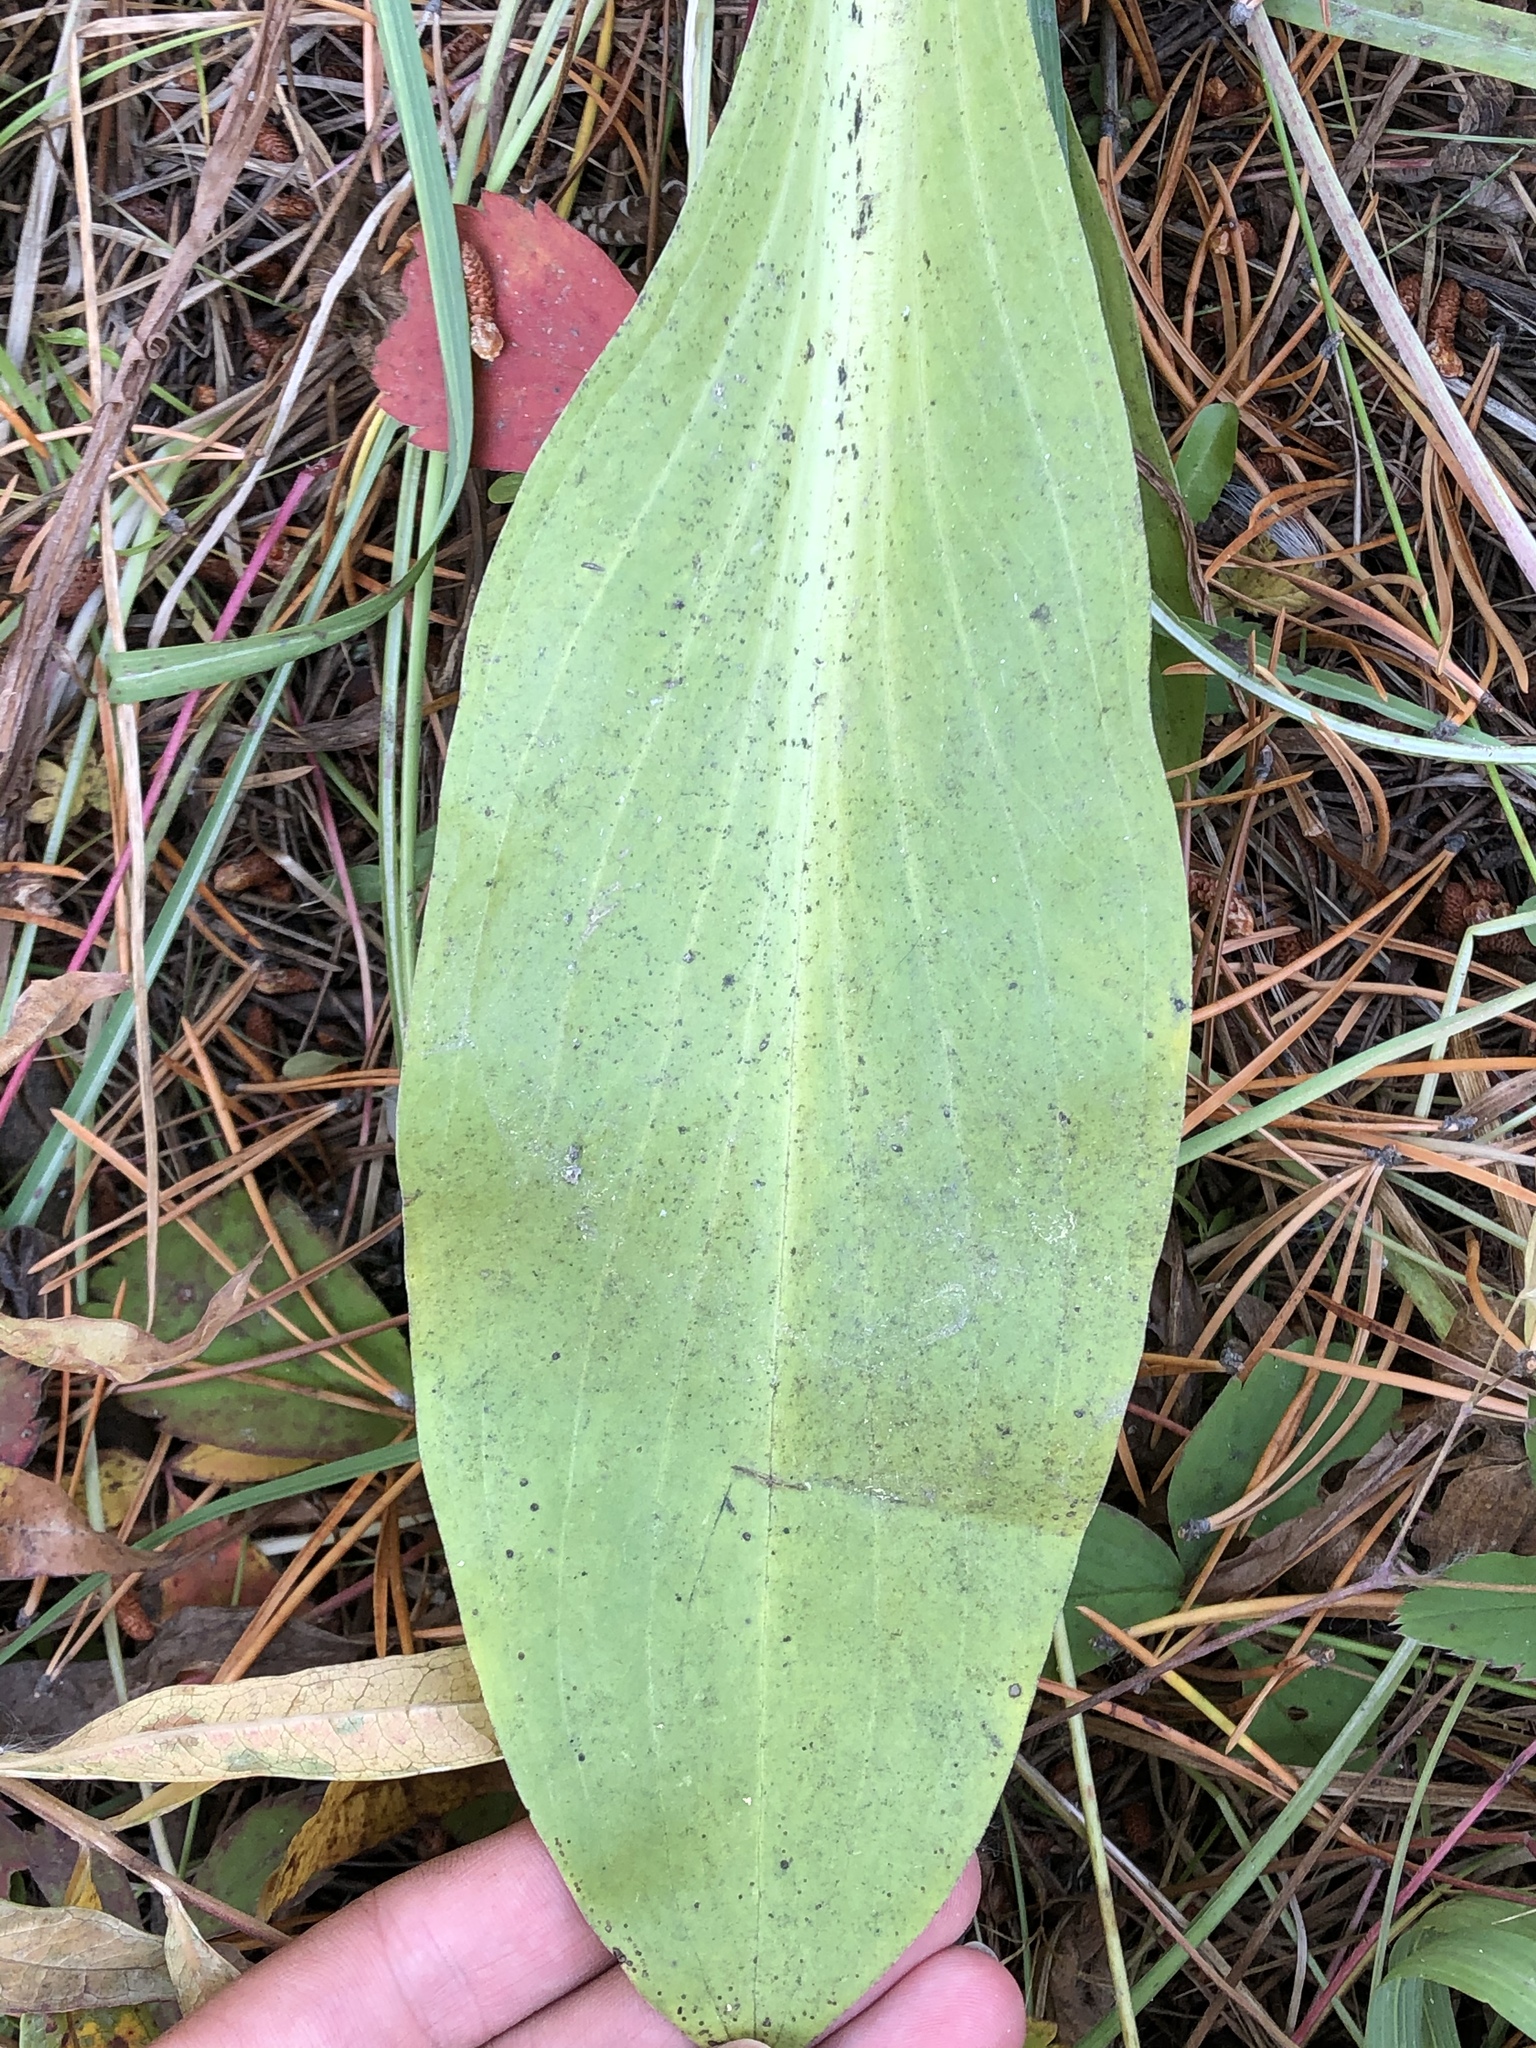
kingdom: Plantae
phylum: Tracheophyta
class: Magnoliopsida
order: Gentianales
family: Gentianaceae
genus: Frasera
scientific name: Frasera speciosa
